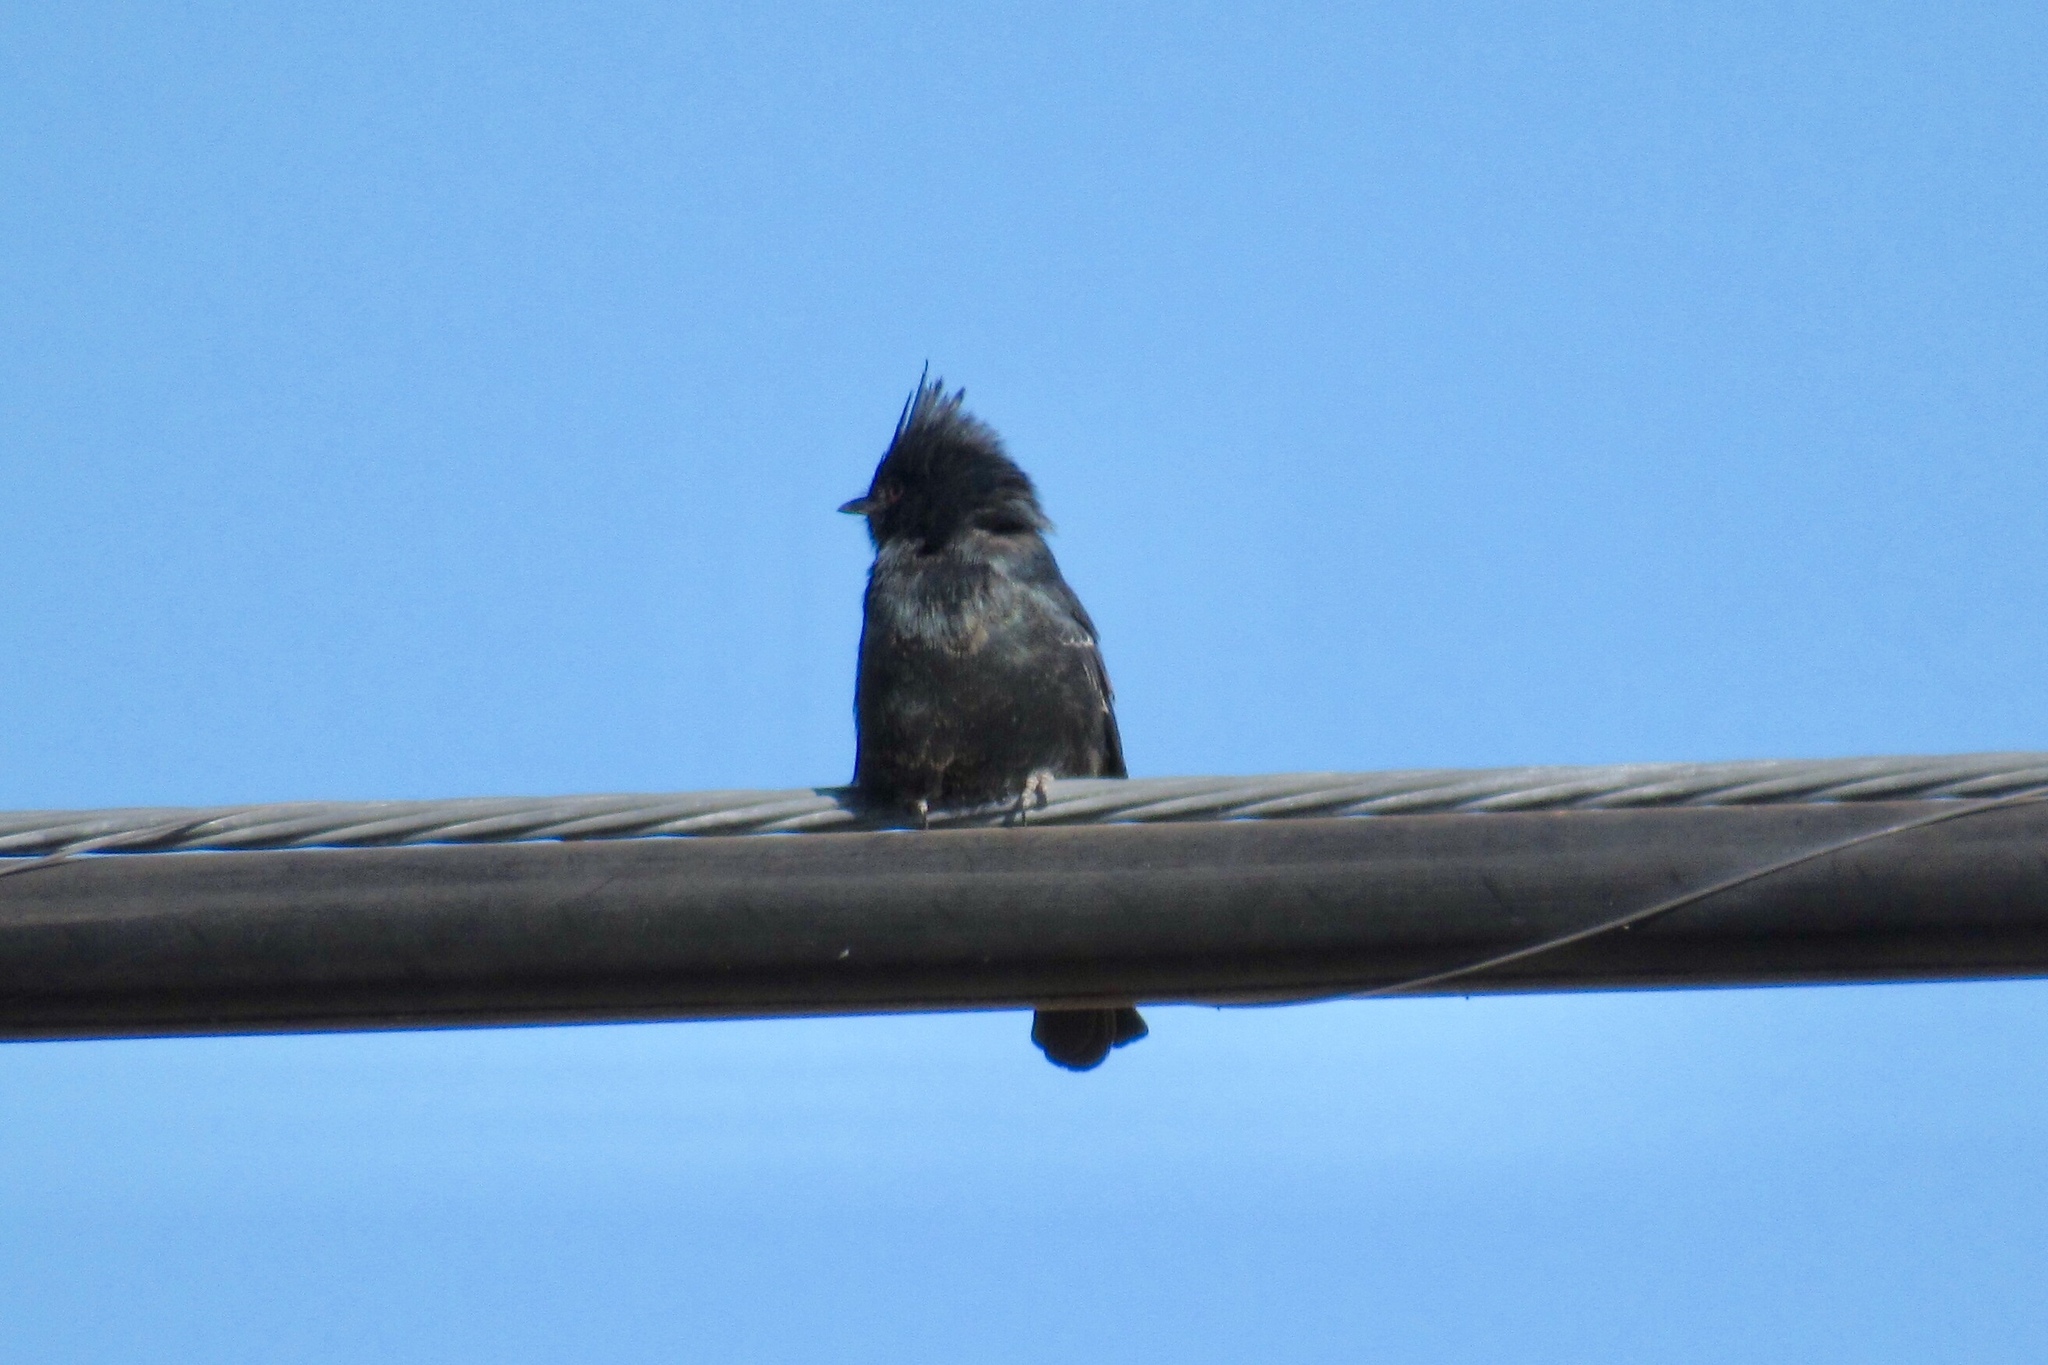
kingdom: Animalia
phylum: Chordata
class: Aves
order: Passeriformes
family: Ptilogonatidae
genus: Phainopepla
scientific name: Phainopepla nitens
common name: Phainopepla
